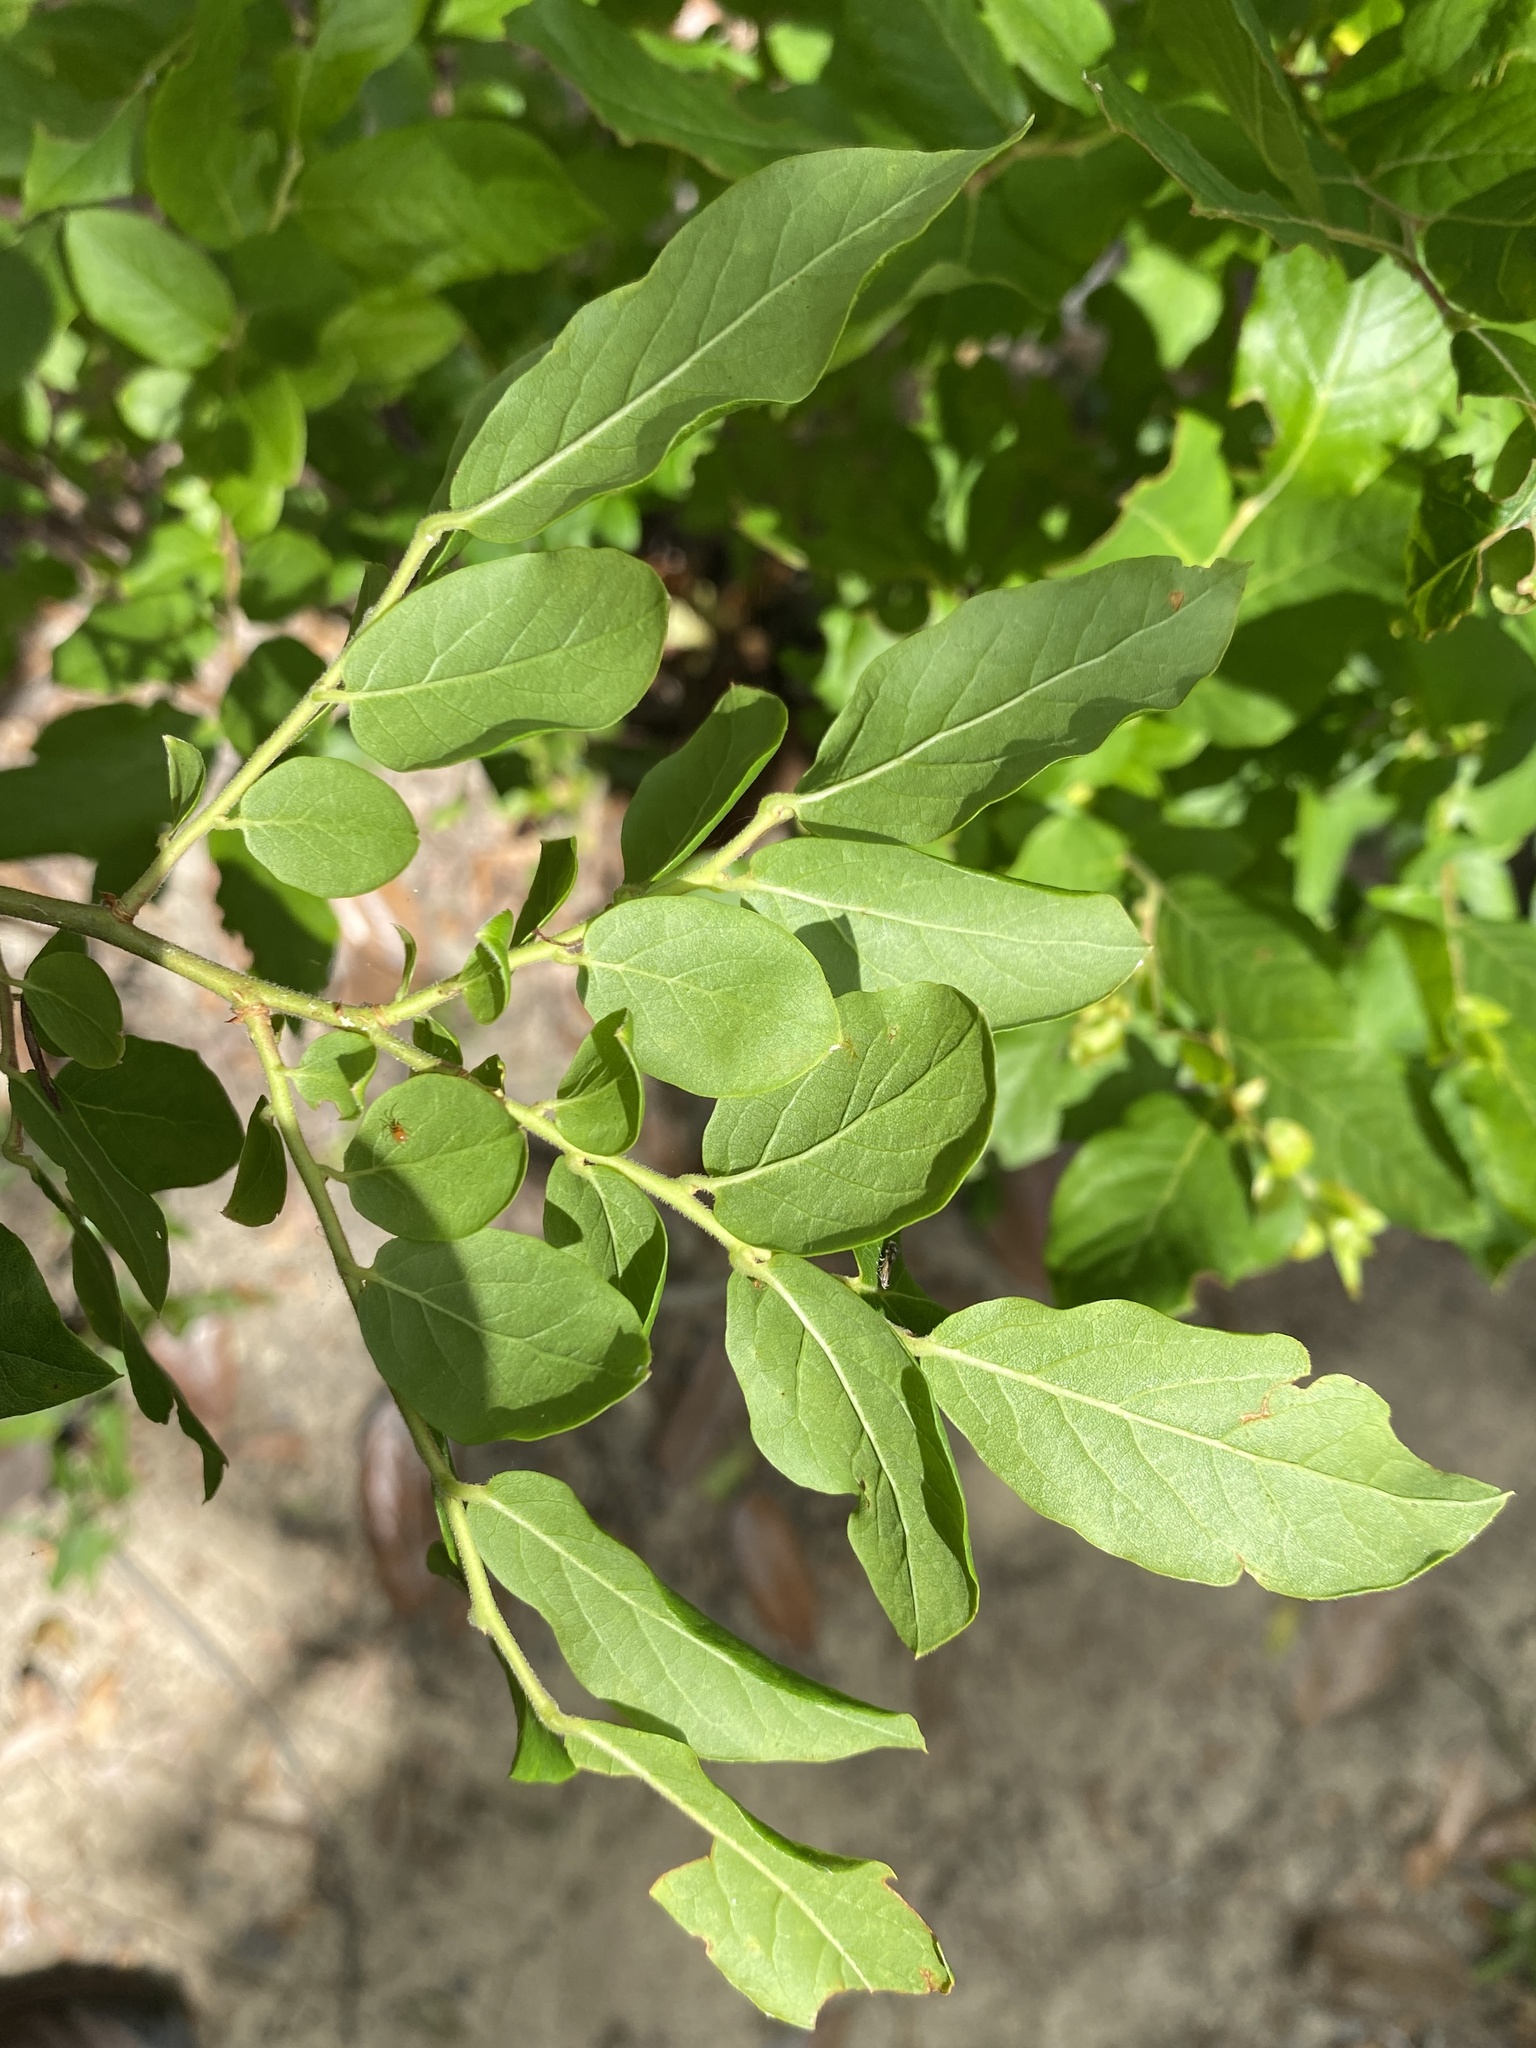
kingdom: Plantae
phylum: Tracheophyta
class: Magnoliopsida
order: Ericales
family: Ericaceae
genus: Vaccinium
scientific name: Vaccinium stamineum
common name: Deerberry
